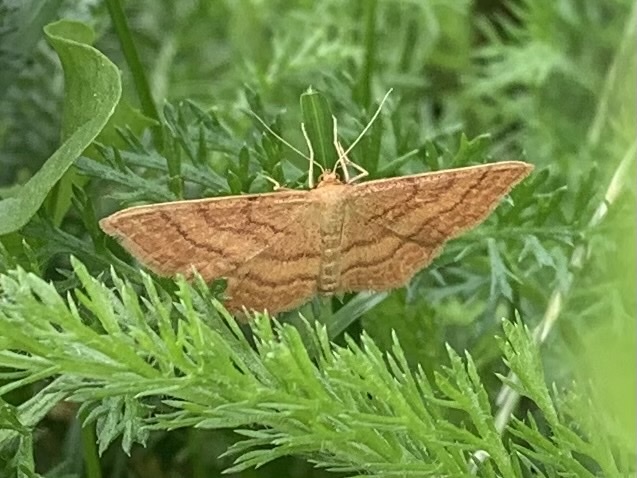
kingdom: Animalia
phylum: Arthropoda
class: Insecta
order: Lepidoptera
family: Geometridae
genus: Idaea
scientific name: Idaea ochrata
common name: Bright wave
